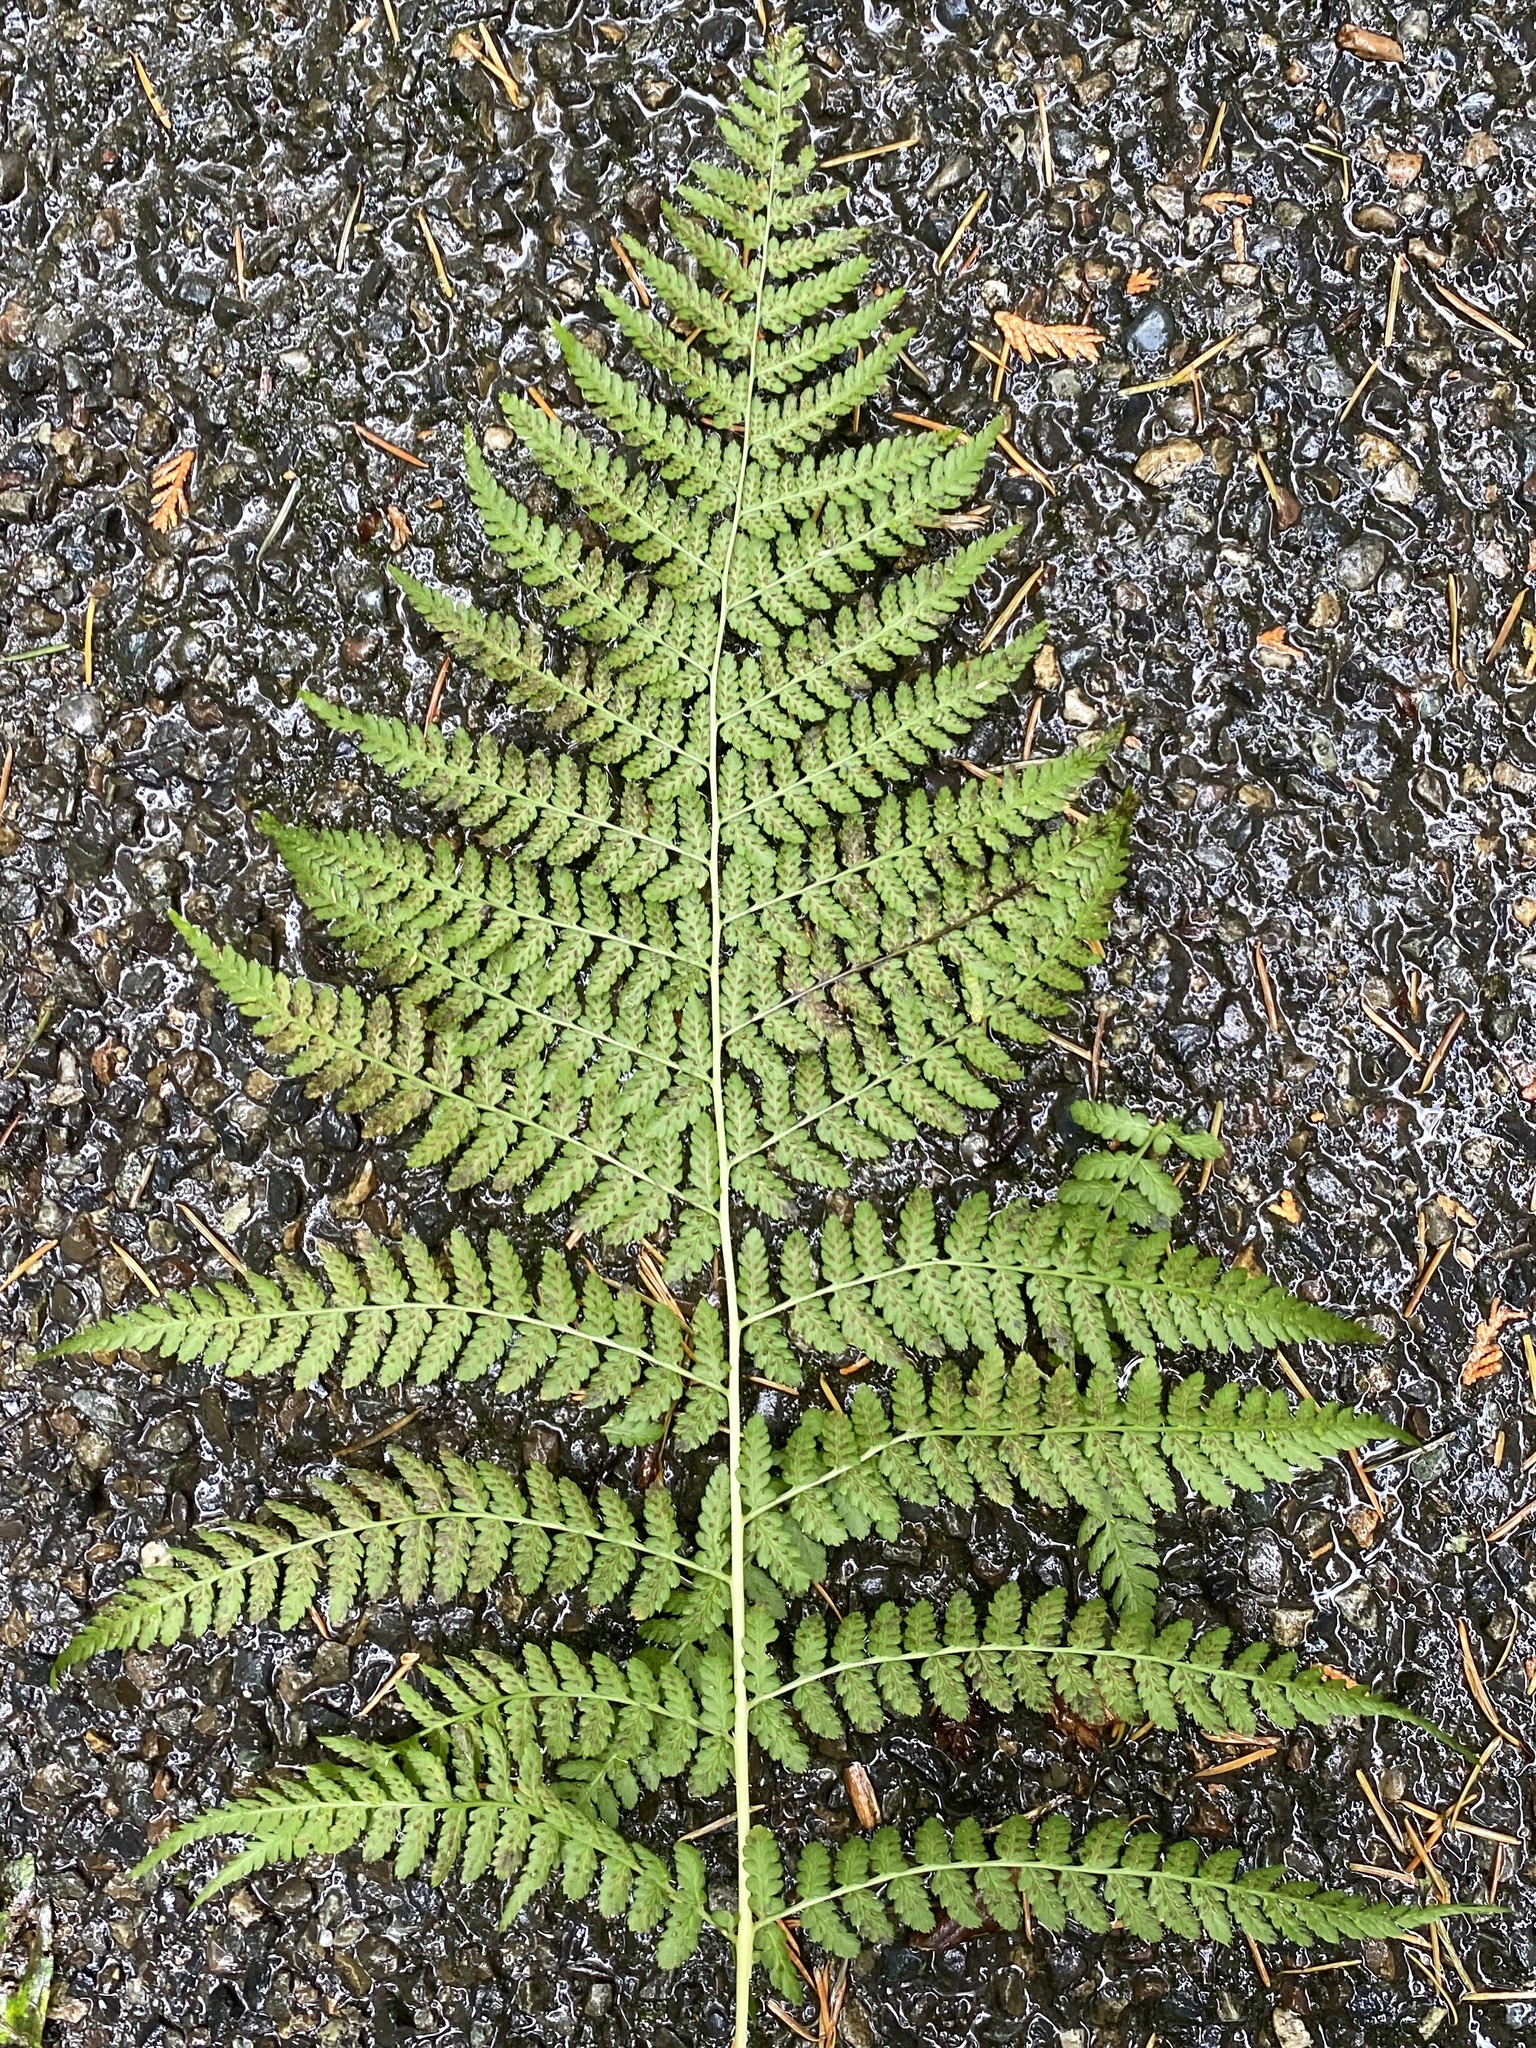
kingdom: Plantae
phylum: Tracheophyta
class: Polypodiopsida
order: Polypodiales
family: Athyriaceae
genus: Athyrium
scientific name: Athyrium filix-femina
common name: Lady fern
